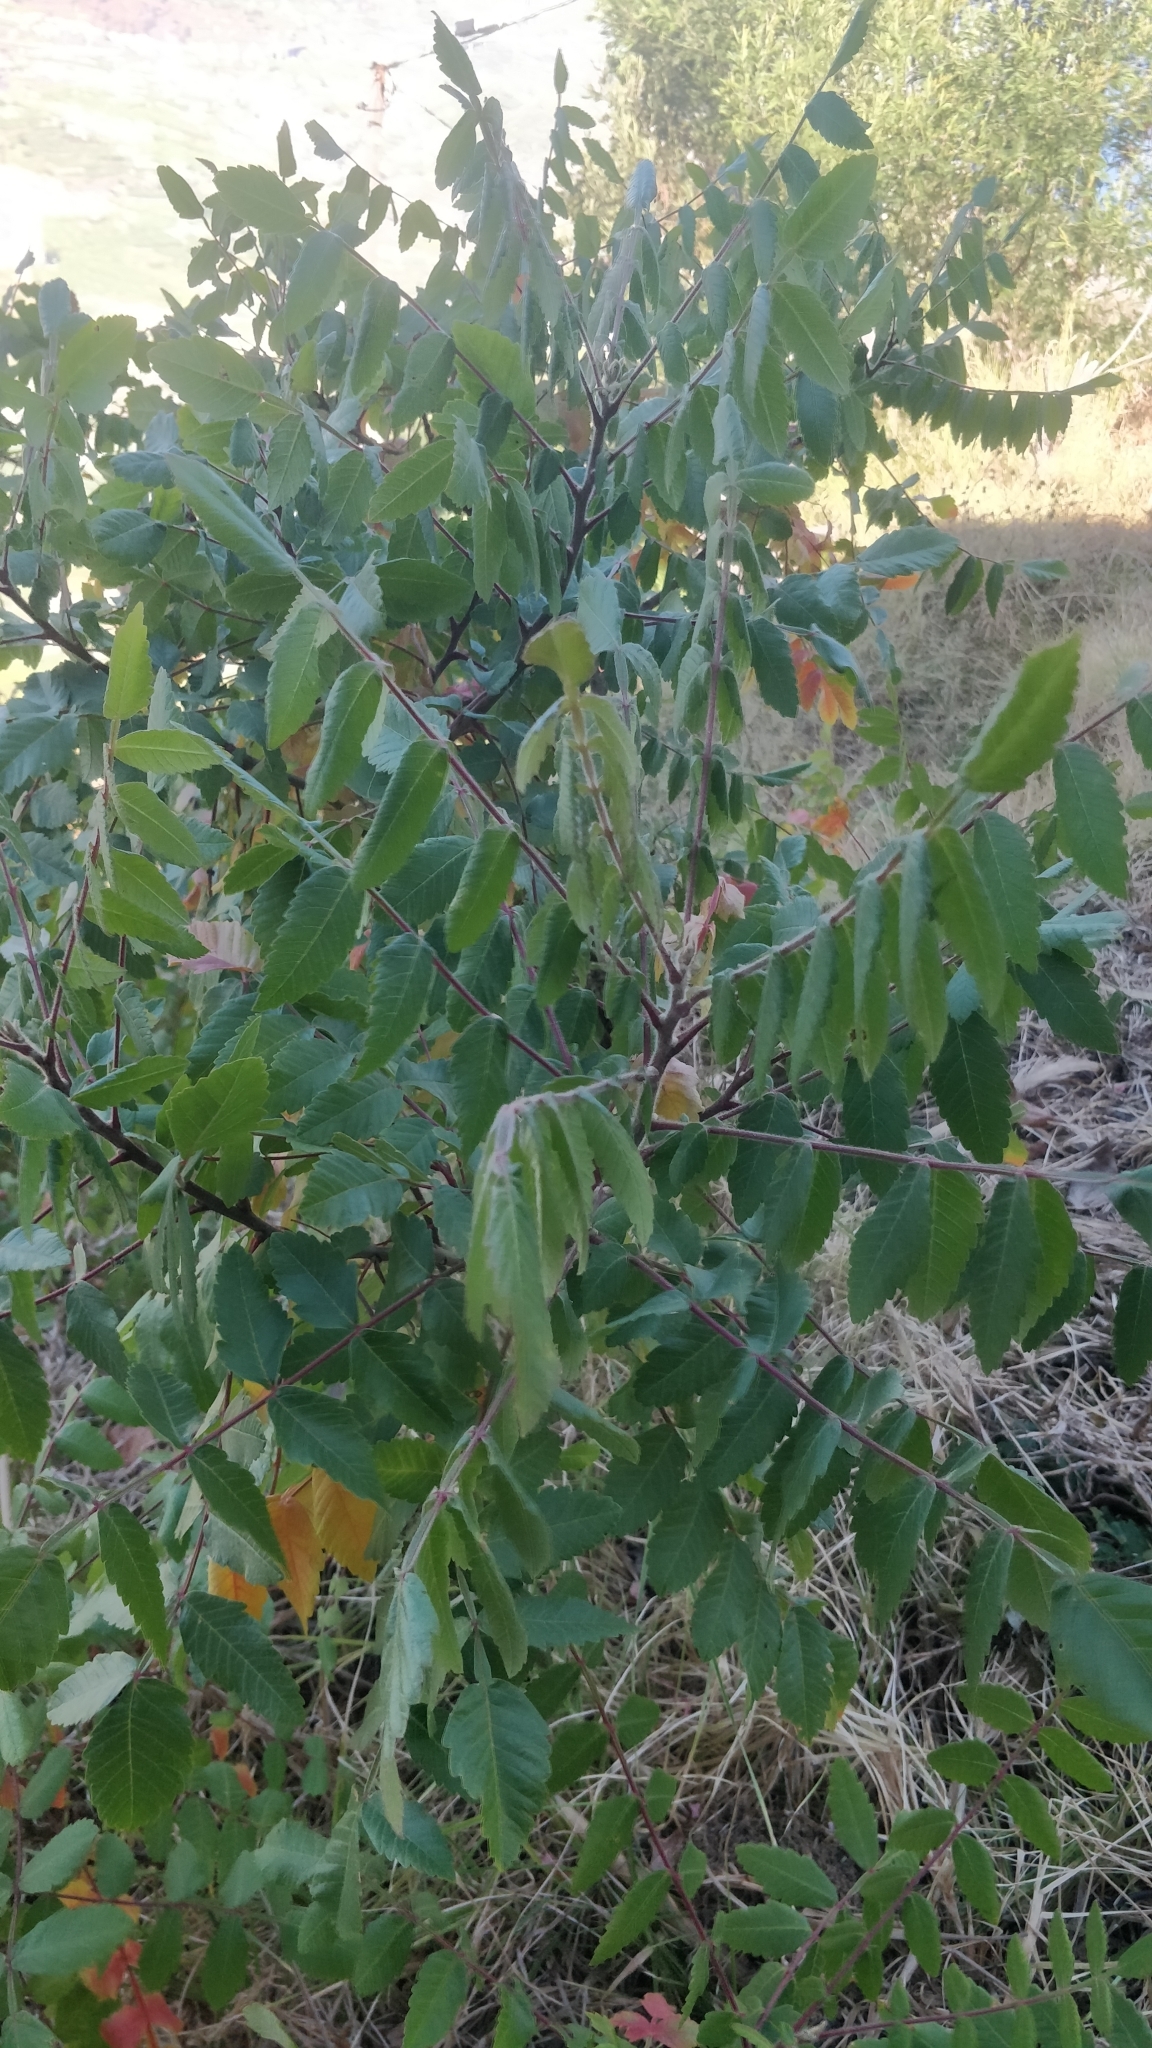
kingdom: Plantae
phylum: Tracheophyta
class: Magnoliopsida
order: Sapindales
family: Anacardiaceae
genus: Rhus
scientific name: Rhus coriaria
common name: Tanner's sumach
